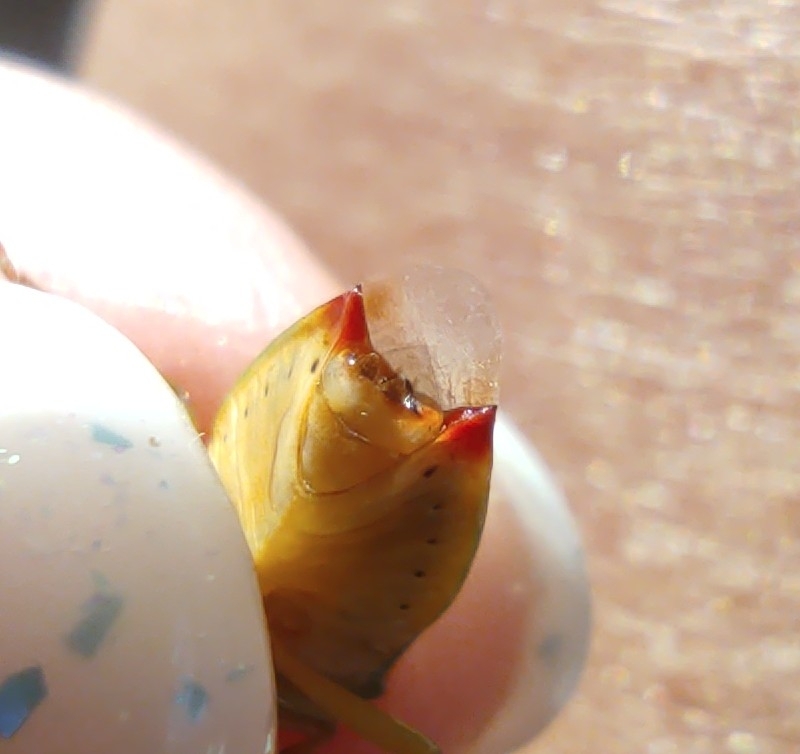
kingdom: Animalia
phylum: Arthropoda
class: Insecta
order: Hemiptera
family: Acanthosomatidae
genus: Elasmostethus
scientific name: Elasmostethus interstinctus
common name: Birch shieldbug
